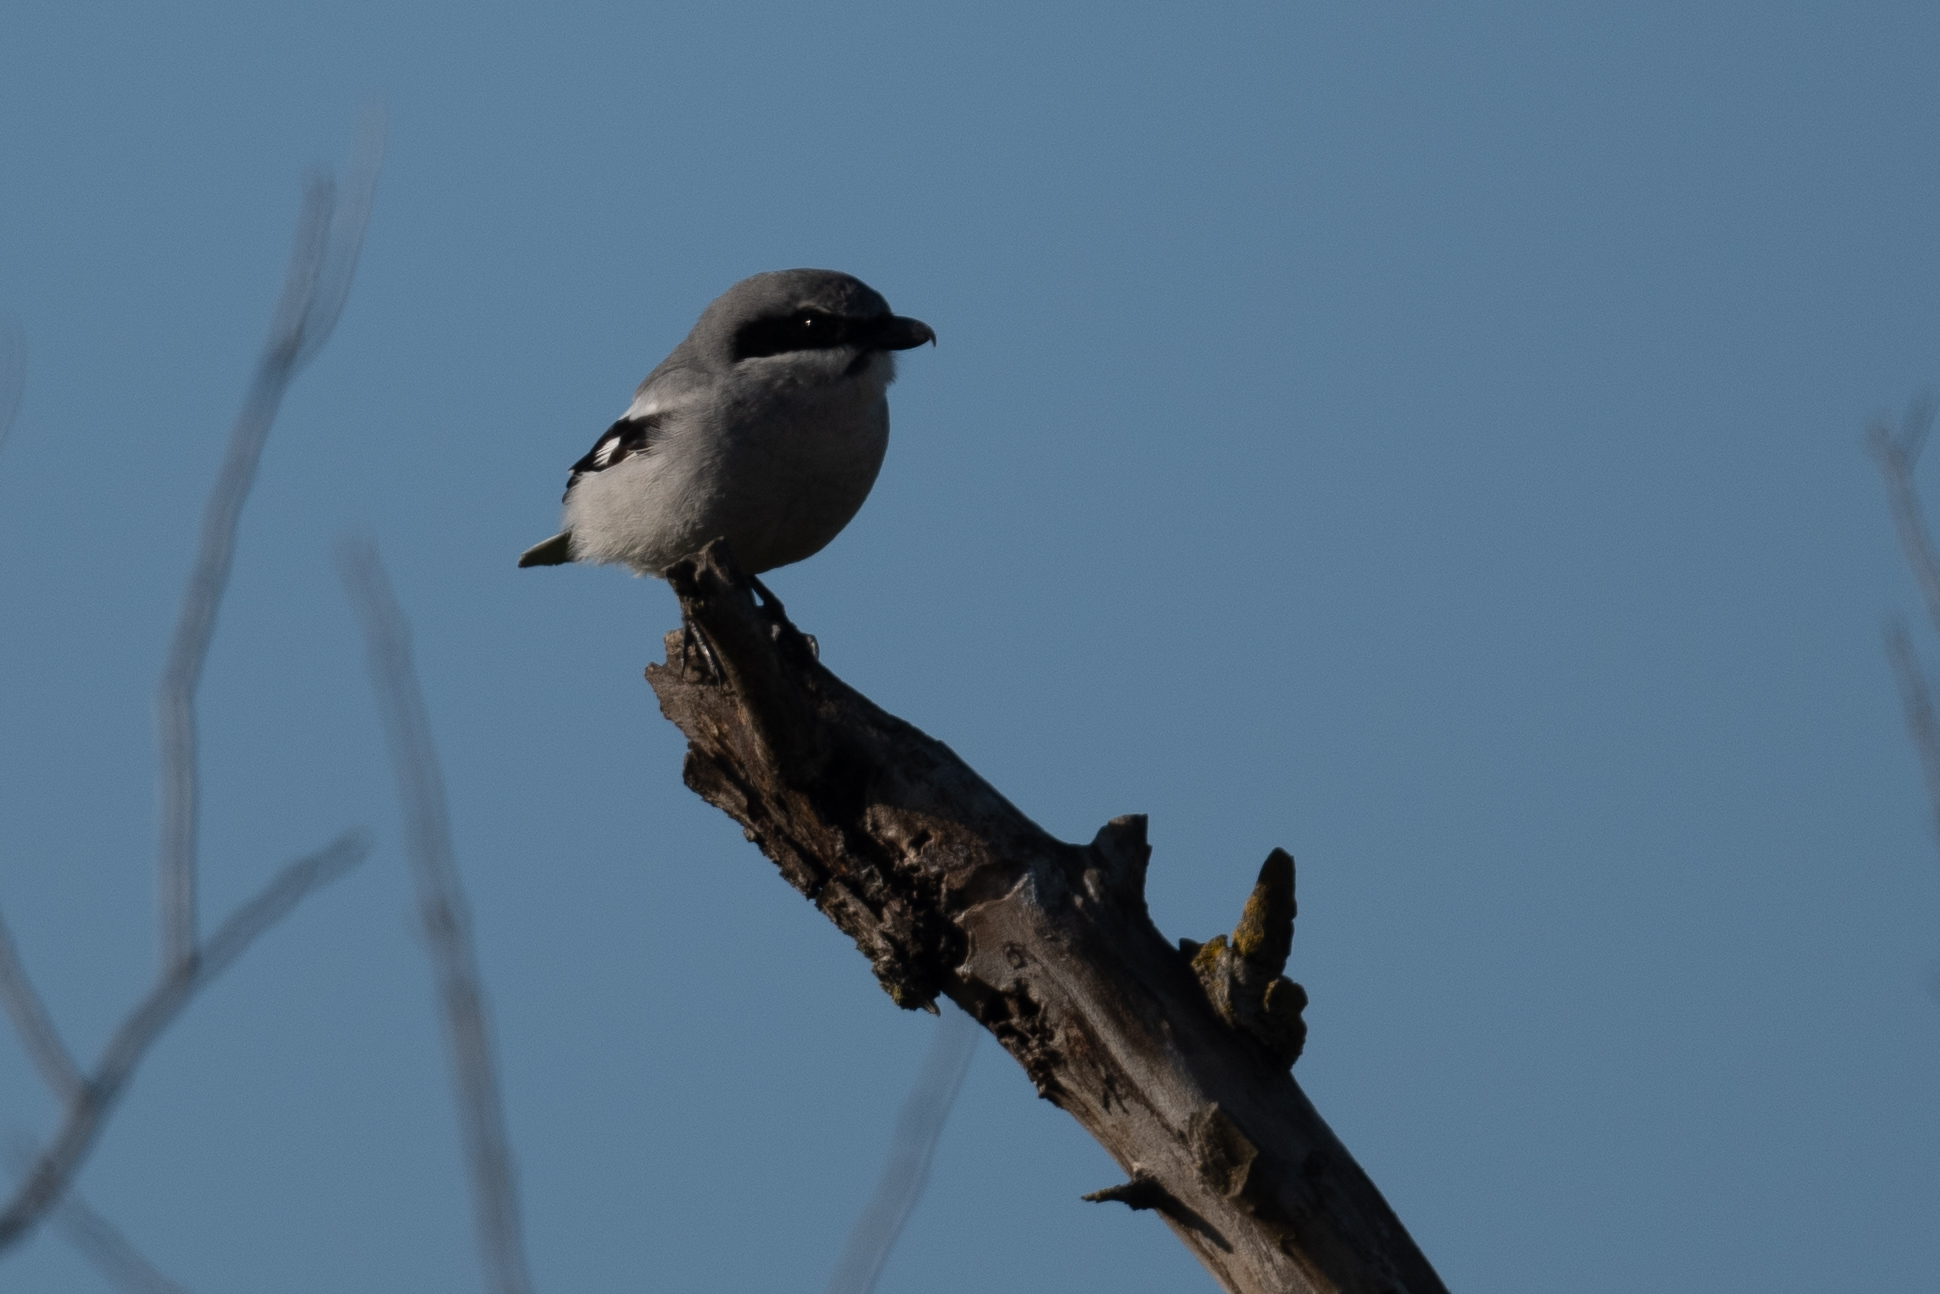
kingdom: Animalia
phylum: Chordata
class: Aves
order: Passeriformes
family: Laniidae
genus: Lanius
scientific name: Lanius ludovicianus
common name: Loggerhead shrike
